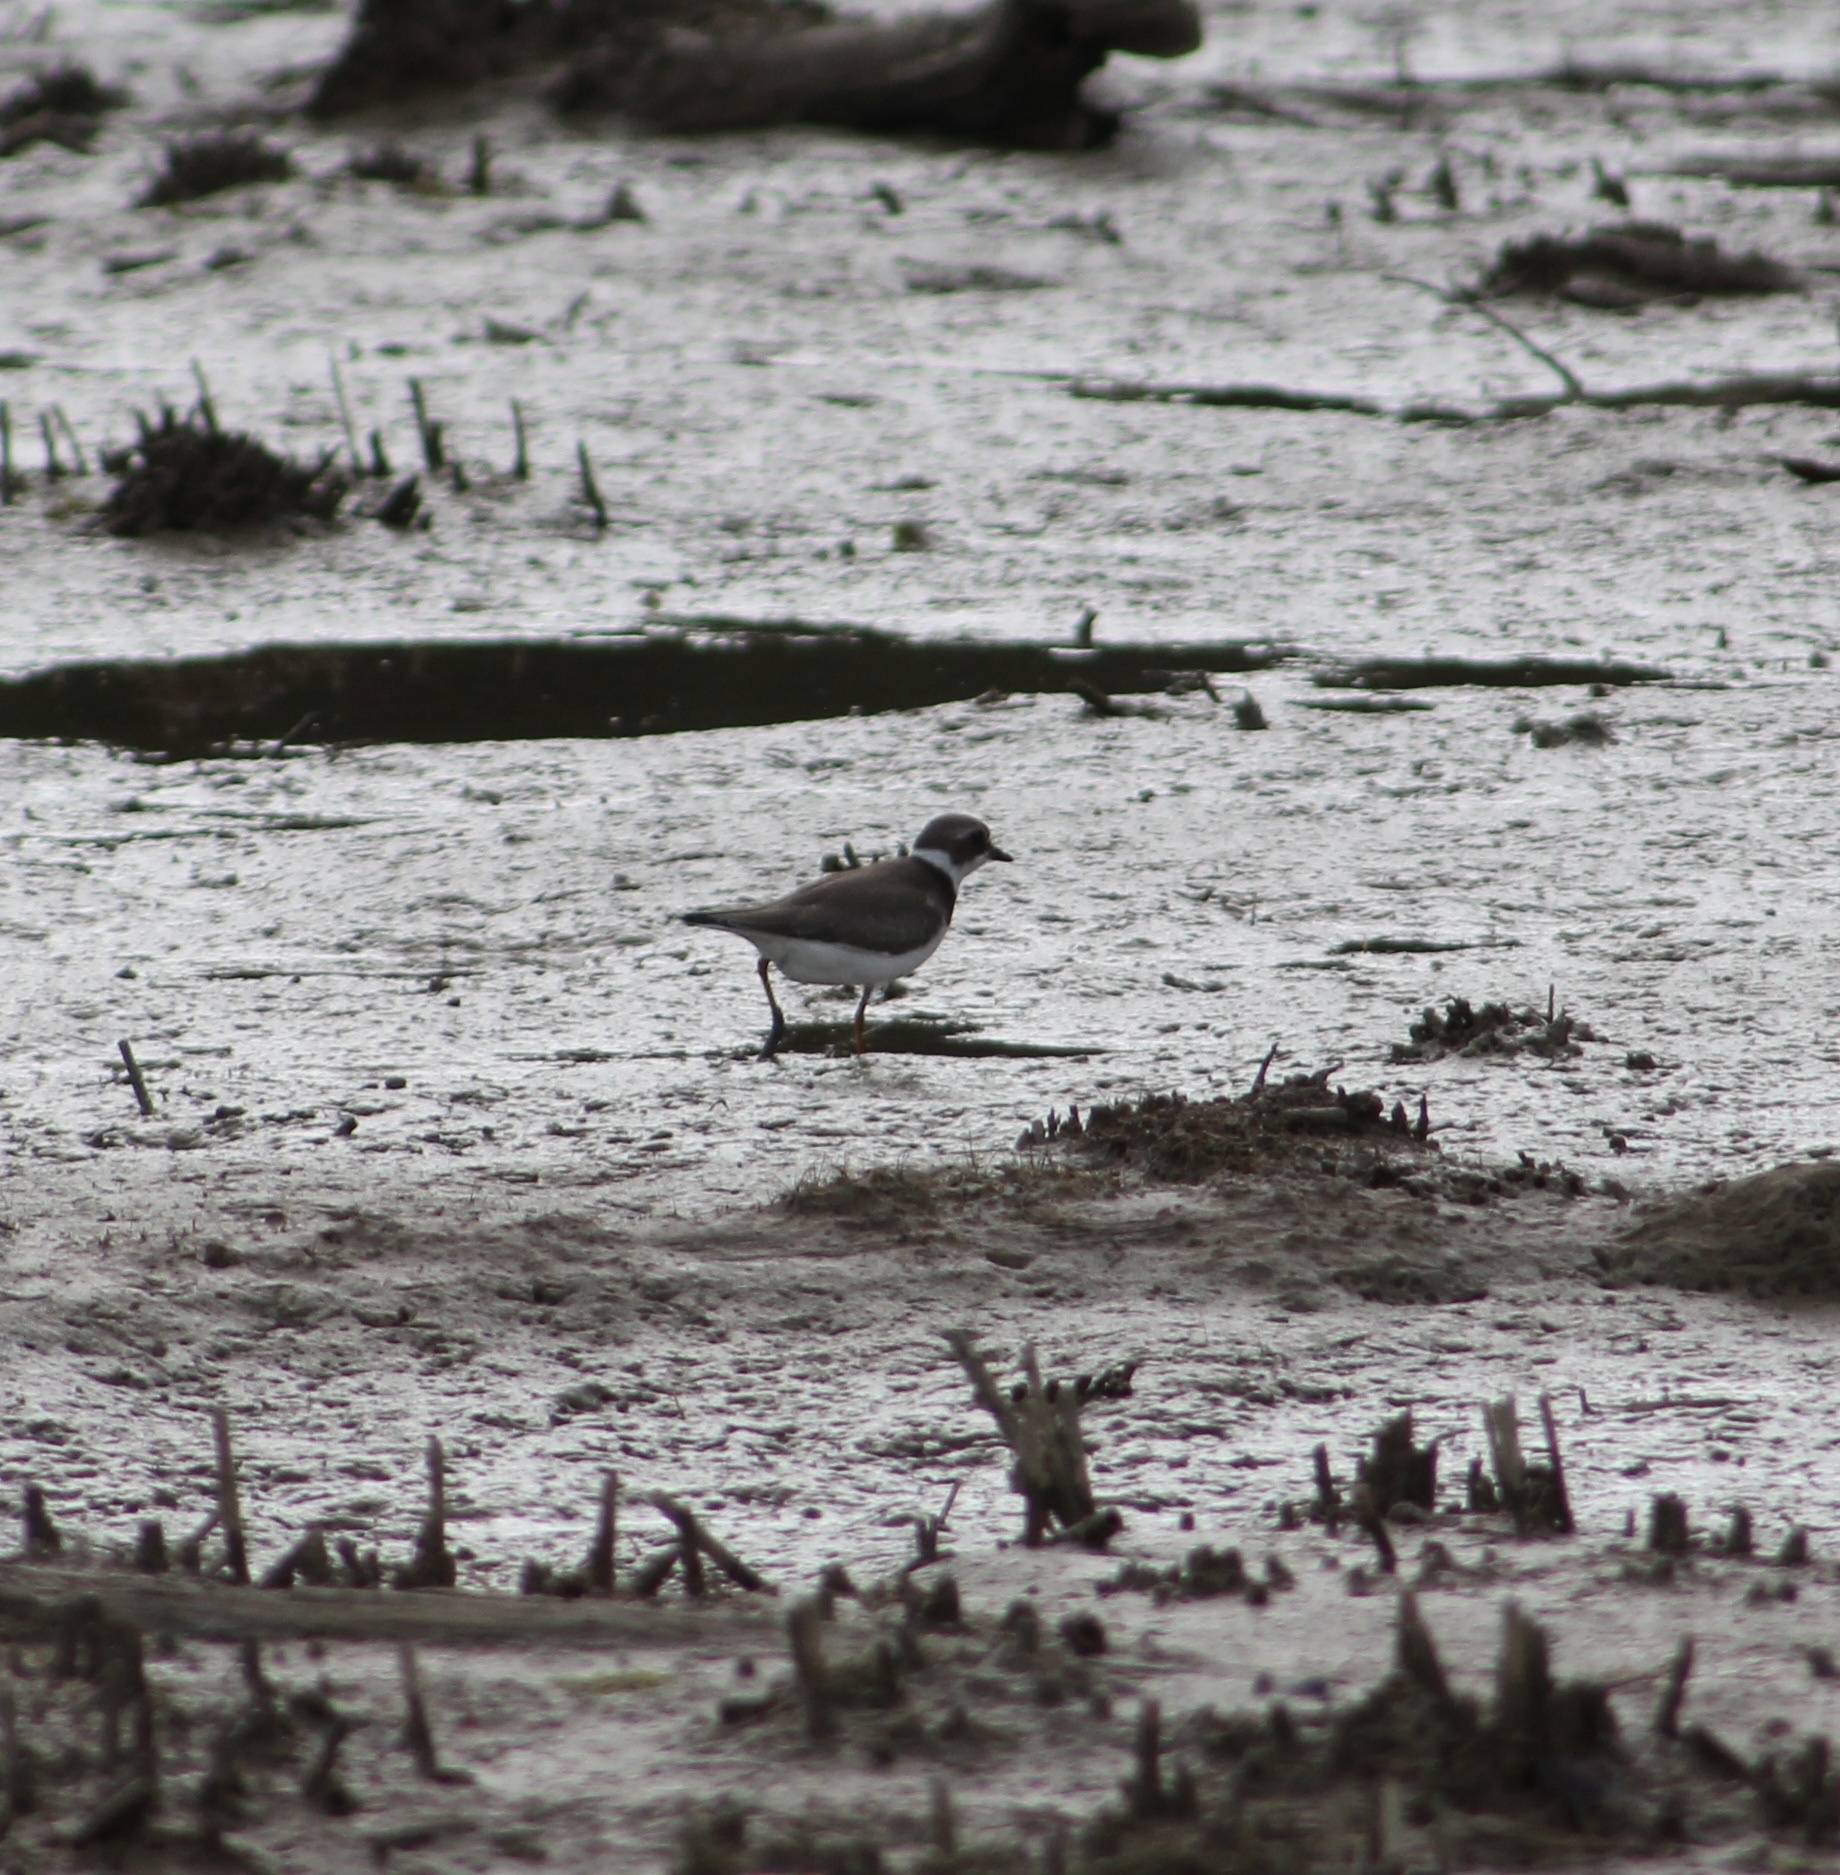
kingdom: Animalia
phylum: Chordata
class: Aves
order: Charadriiformes
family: Charadriidae
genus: Charadrius
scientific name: Charadrius semipalmatus
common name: Semipalmated plover
